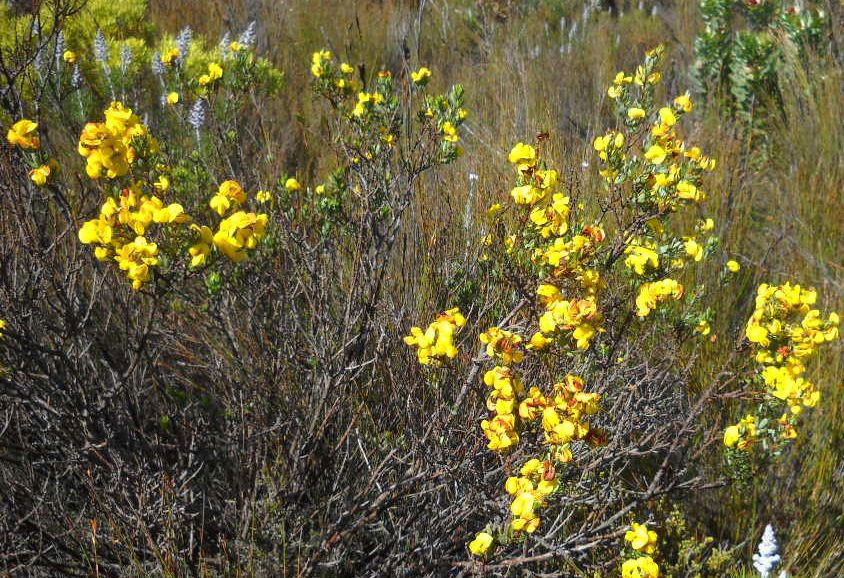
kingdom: Plantae
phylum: Tracheophyta
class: Magnoliopsida
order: Fabales
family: Fabaceae
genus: Cyclopia
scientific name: Cyclopia intermedia
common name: Mountain tea
